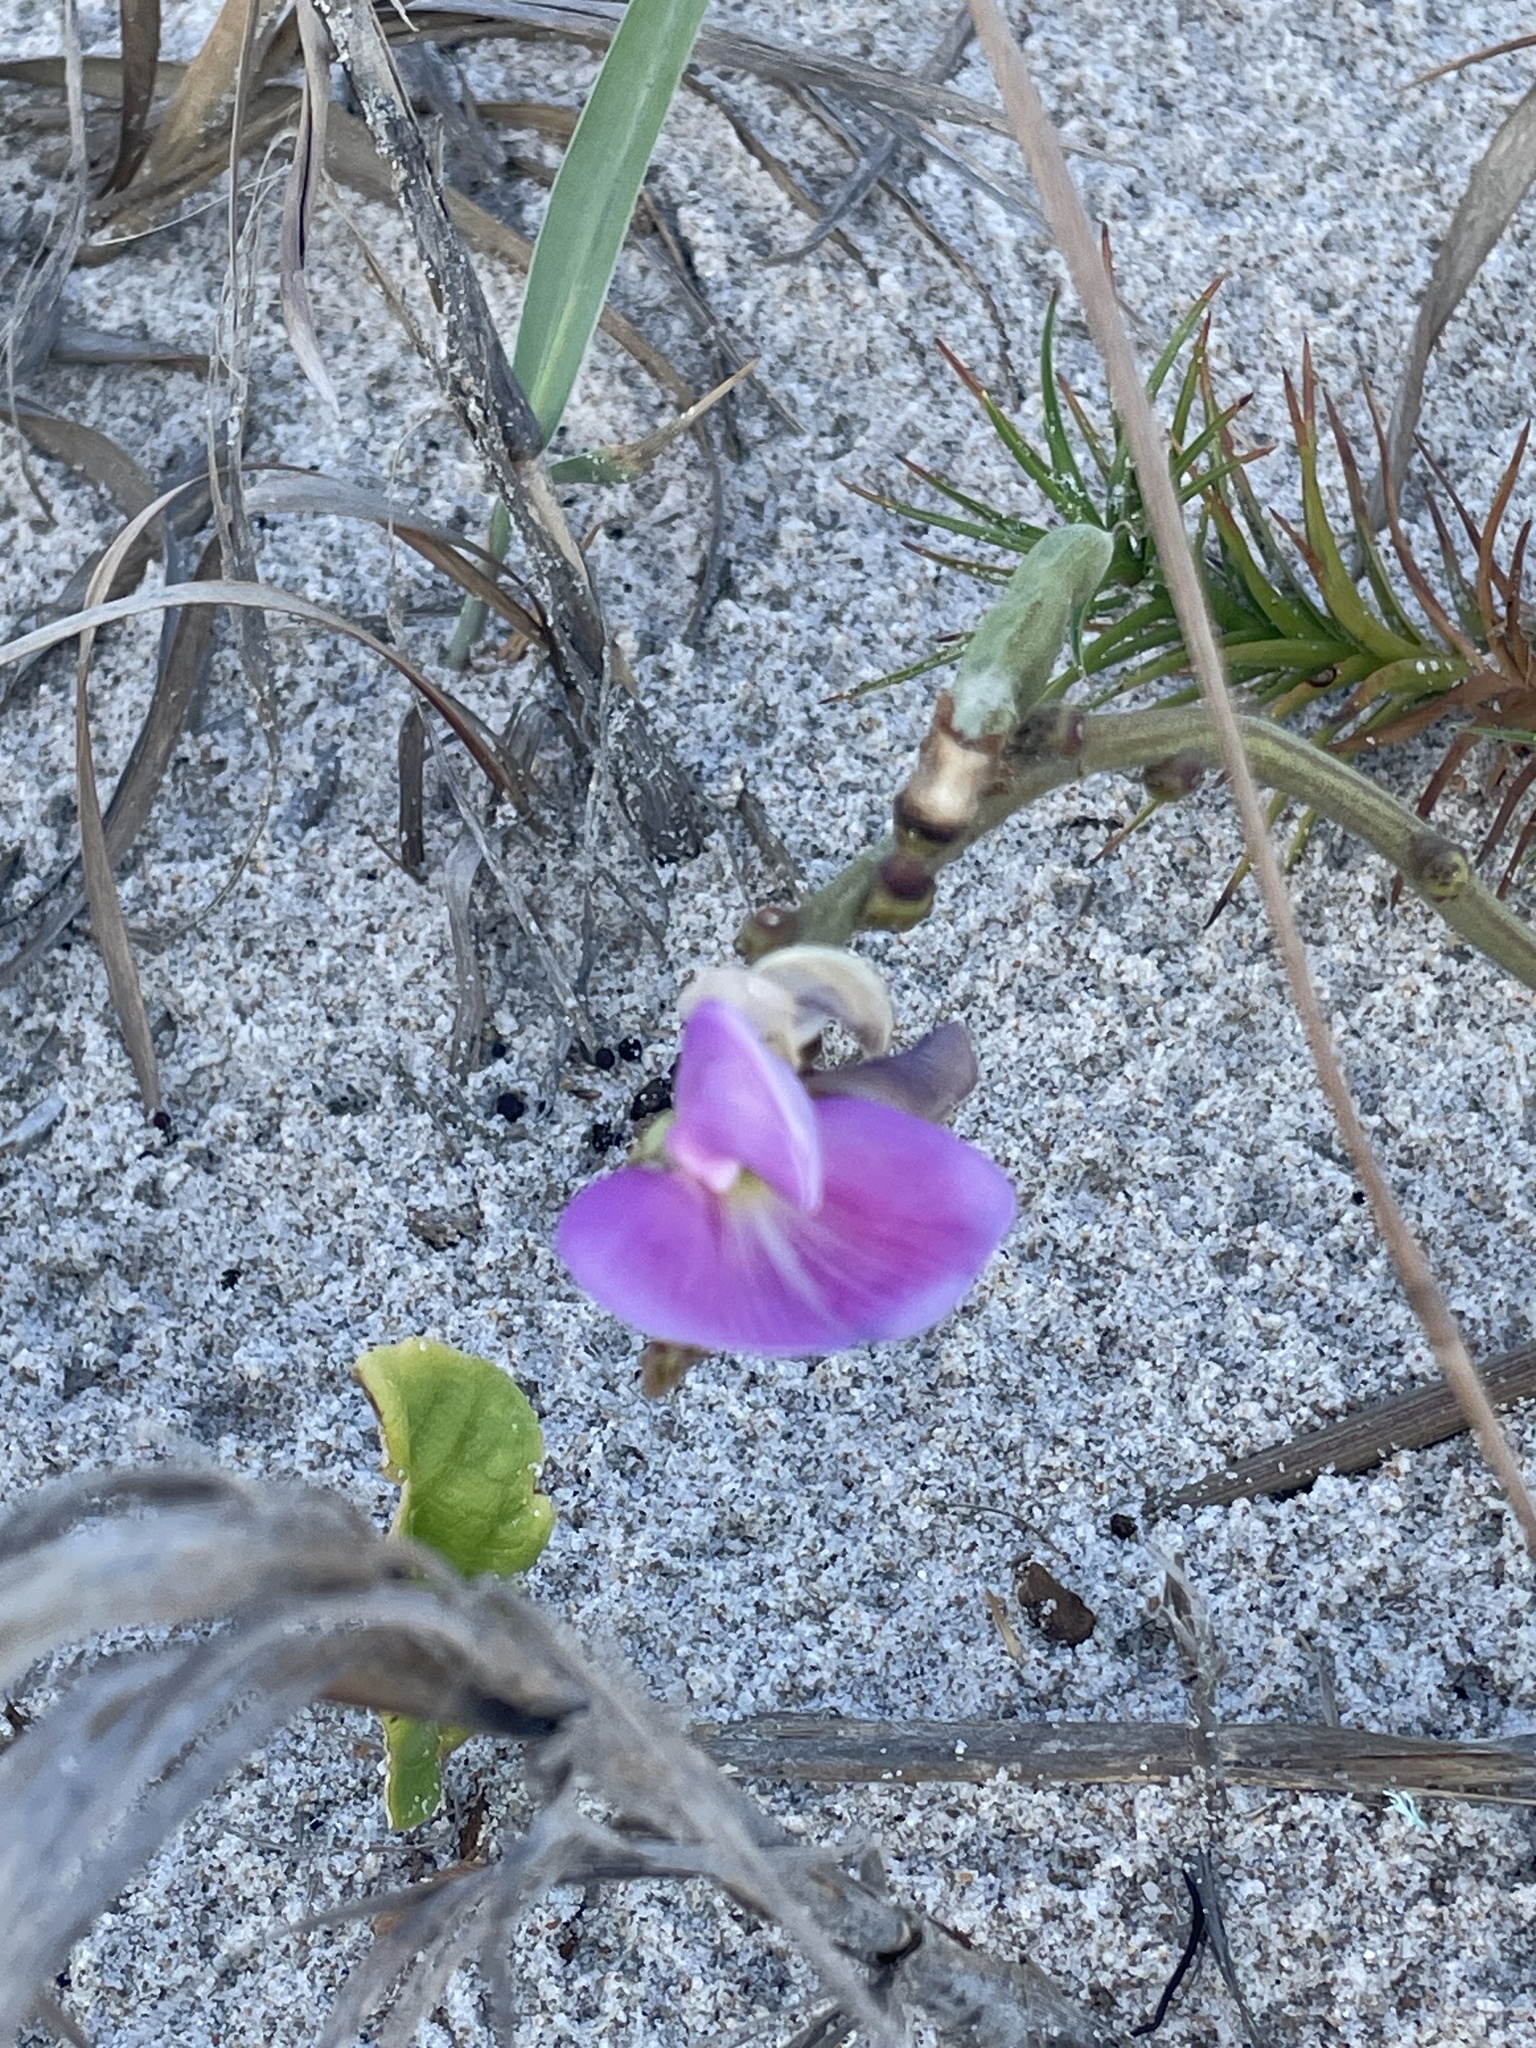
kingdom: Plantae
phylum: Tracheophyta
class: Magnoliopsida
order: Fabales
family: Fabaceae
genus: Canavalia
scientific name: Canavalia rosea
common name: Beach-bean
